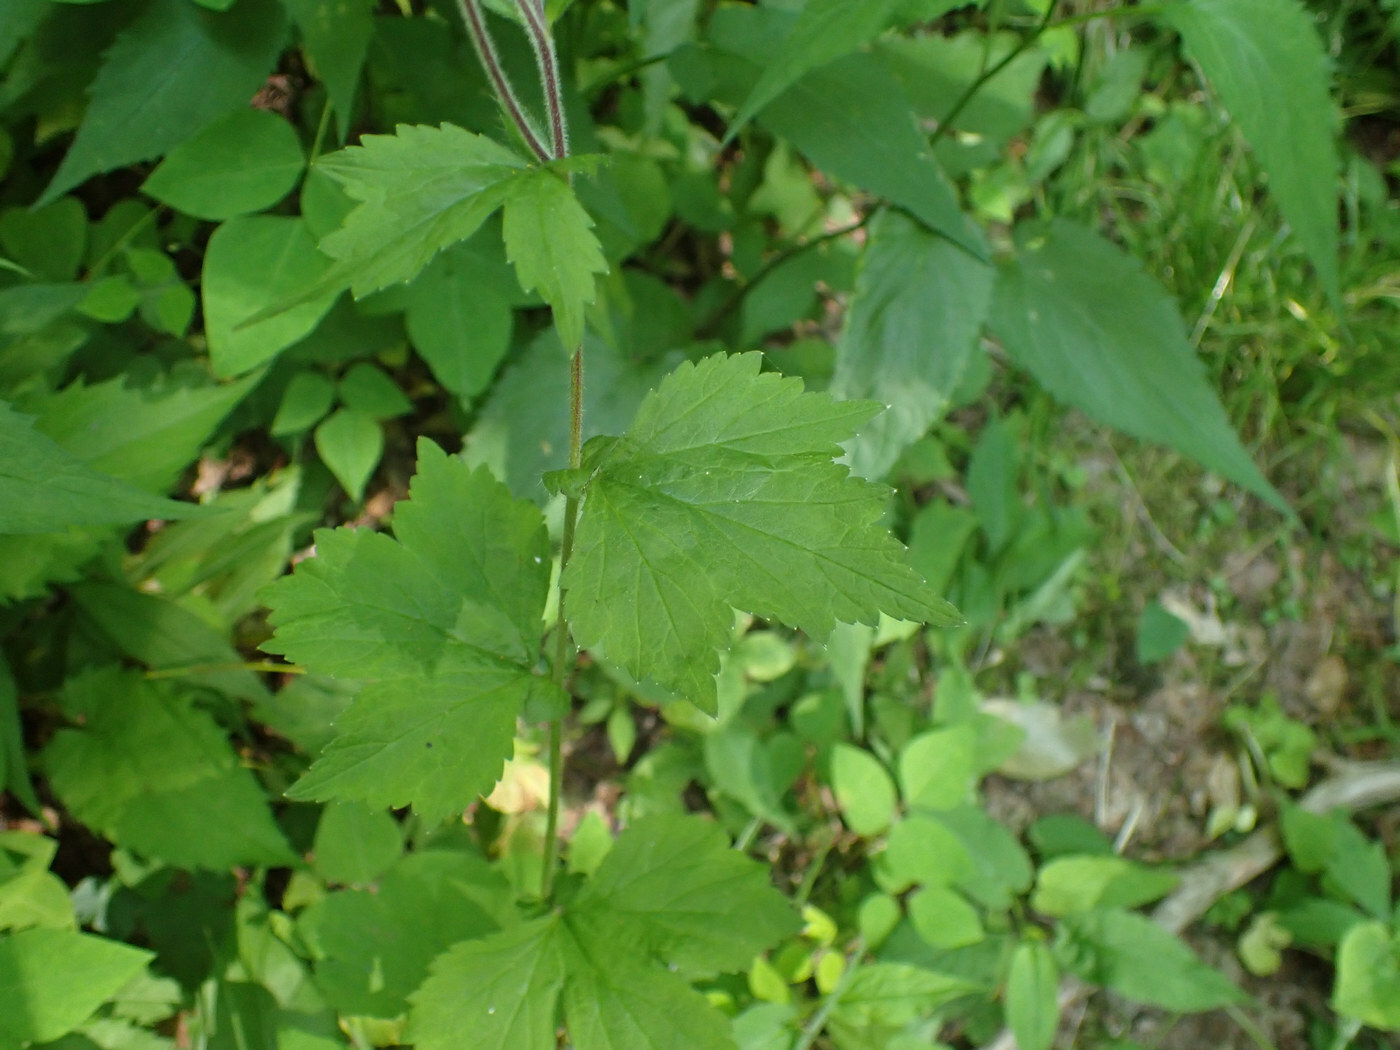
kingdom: Plantae
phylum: Tracheophyta
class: Magnoliopsida
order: Rosales
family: Rosaceae
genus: Geum
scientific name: Geum geniculatum
